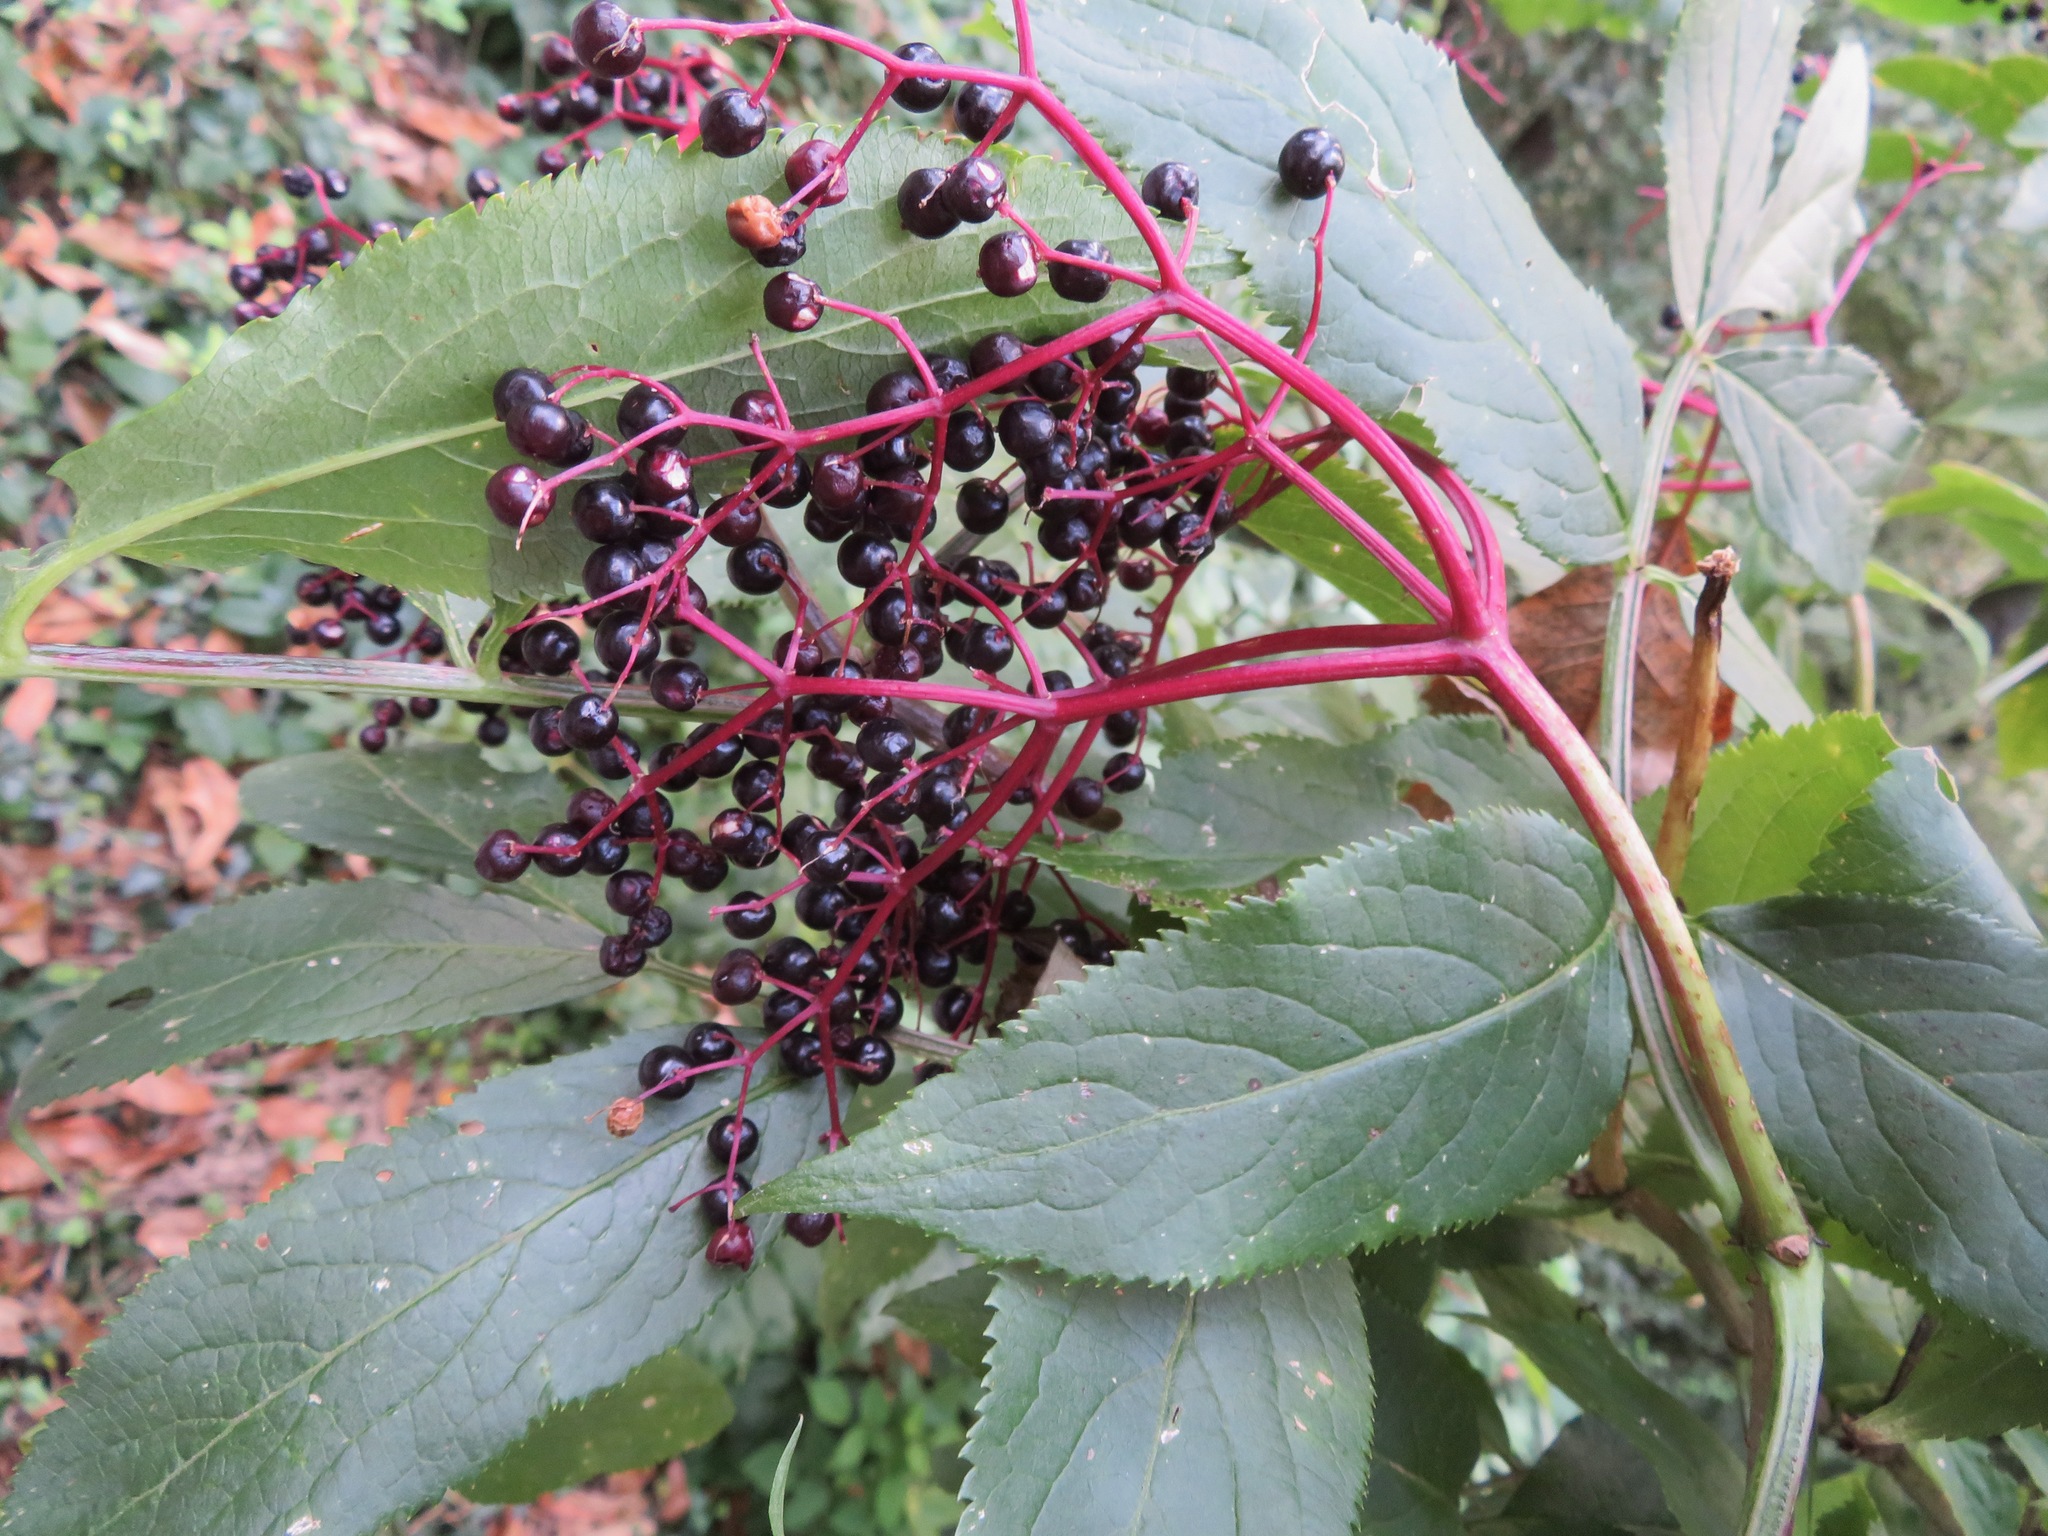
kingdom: Plantae
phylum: Tracheophyta
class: Magnoliopsida
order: Dipsacales
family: Viburnaceae
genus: Sambucus
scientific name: Sambucus nigra
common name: Elder
